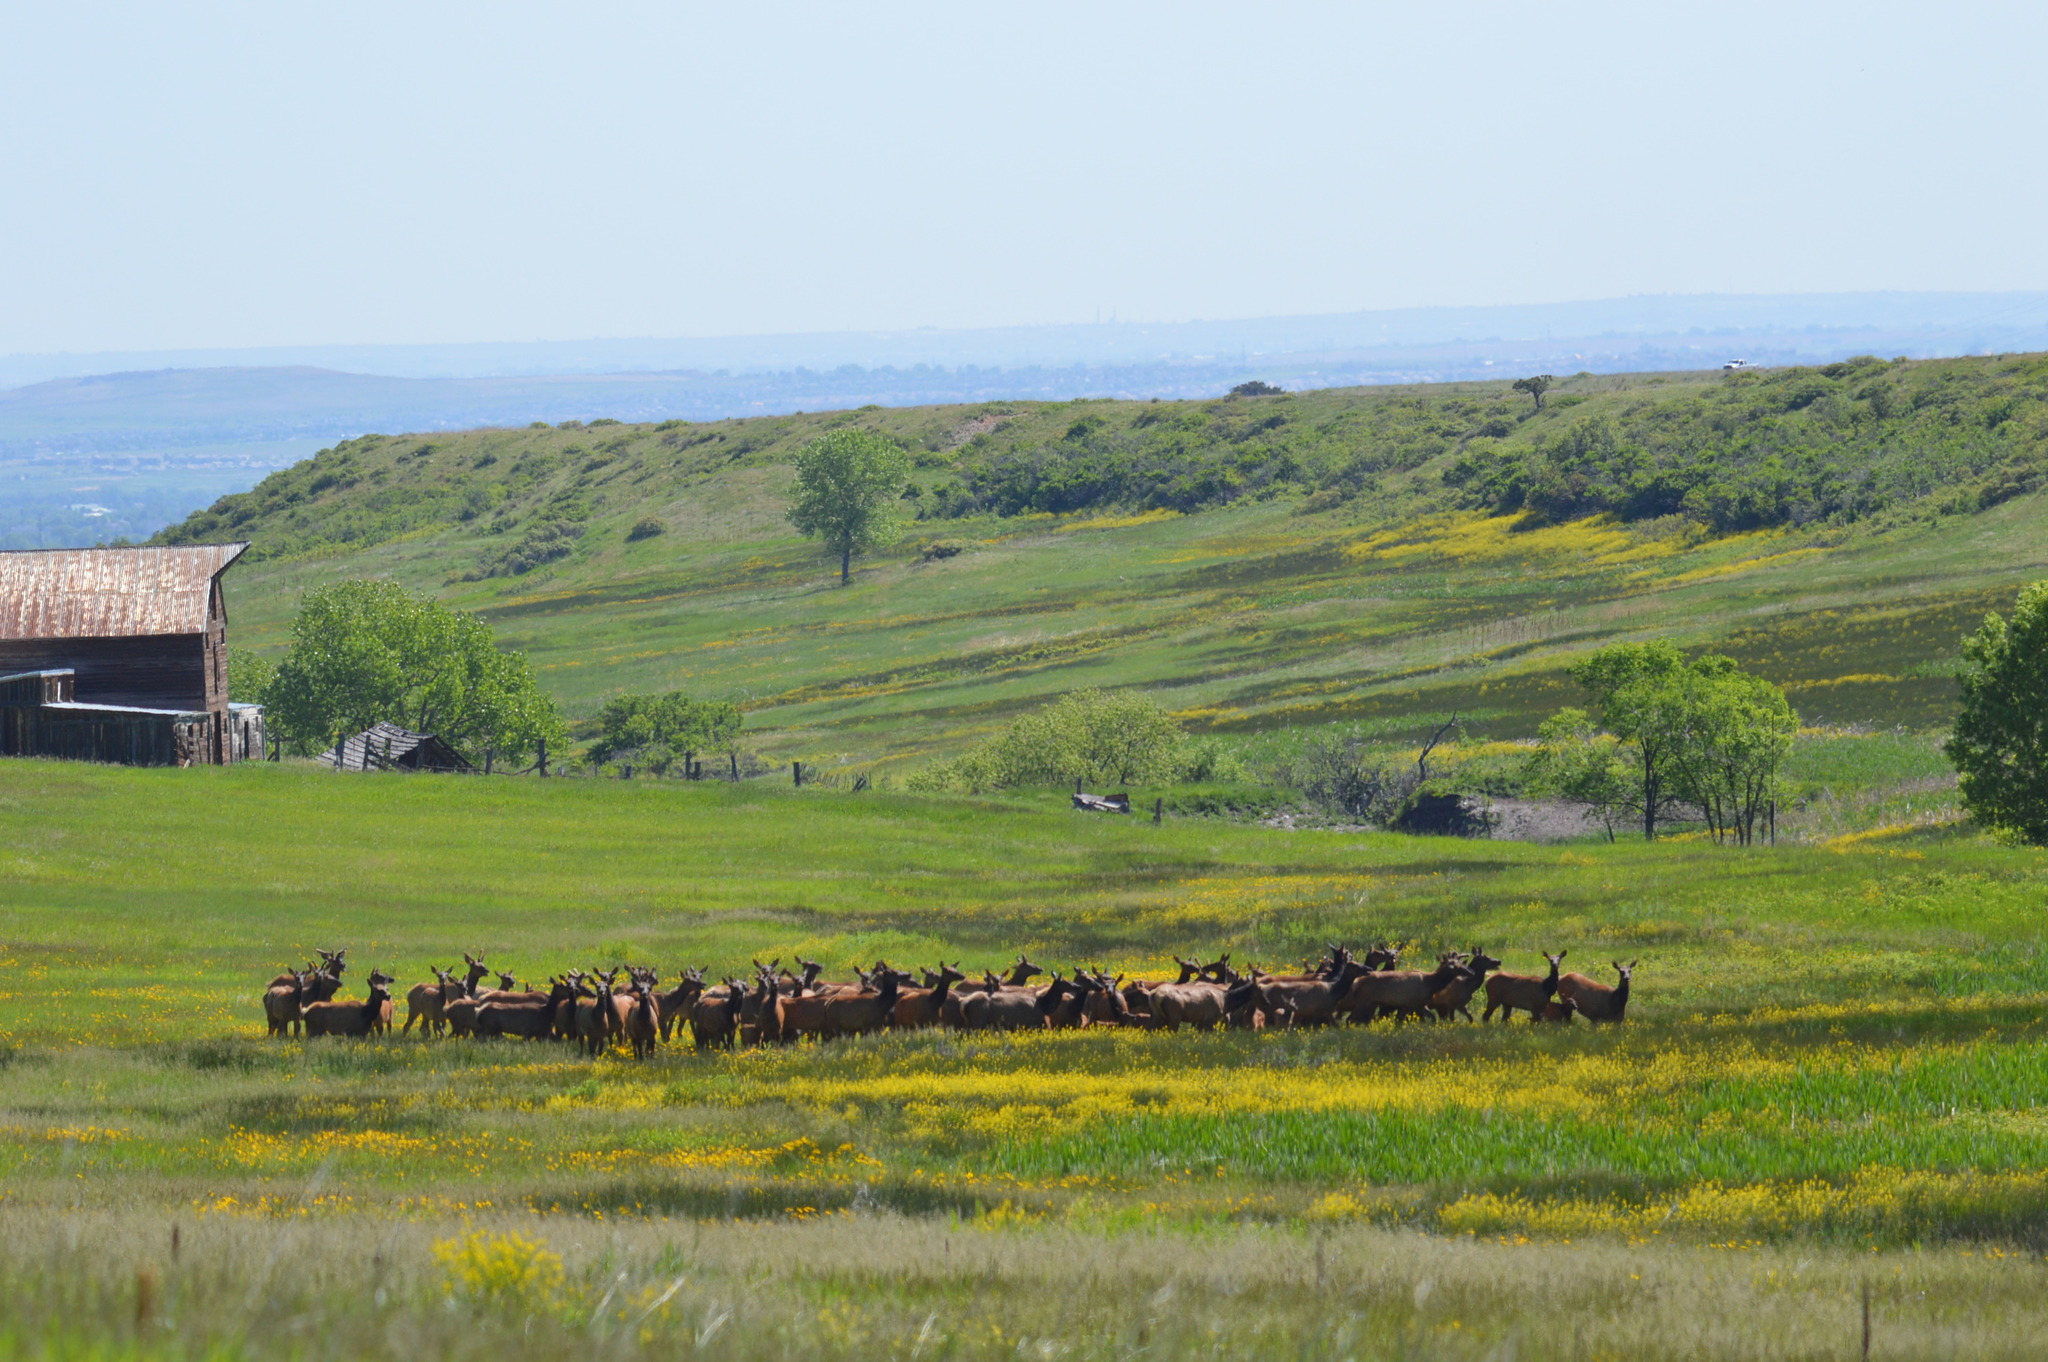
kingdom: Animalia
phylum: Chordata
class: Mammalia
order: Artiodactyla
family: Cervidae
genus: Cervus
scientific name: Cervus elaphus
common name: Red deer
